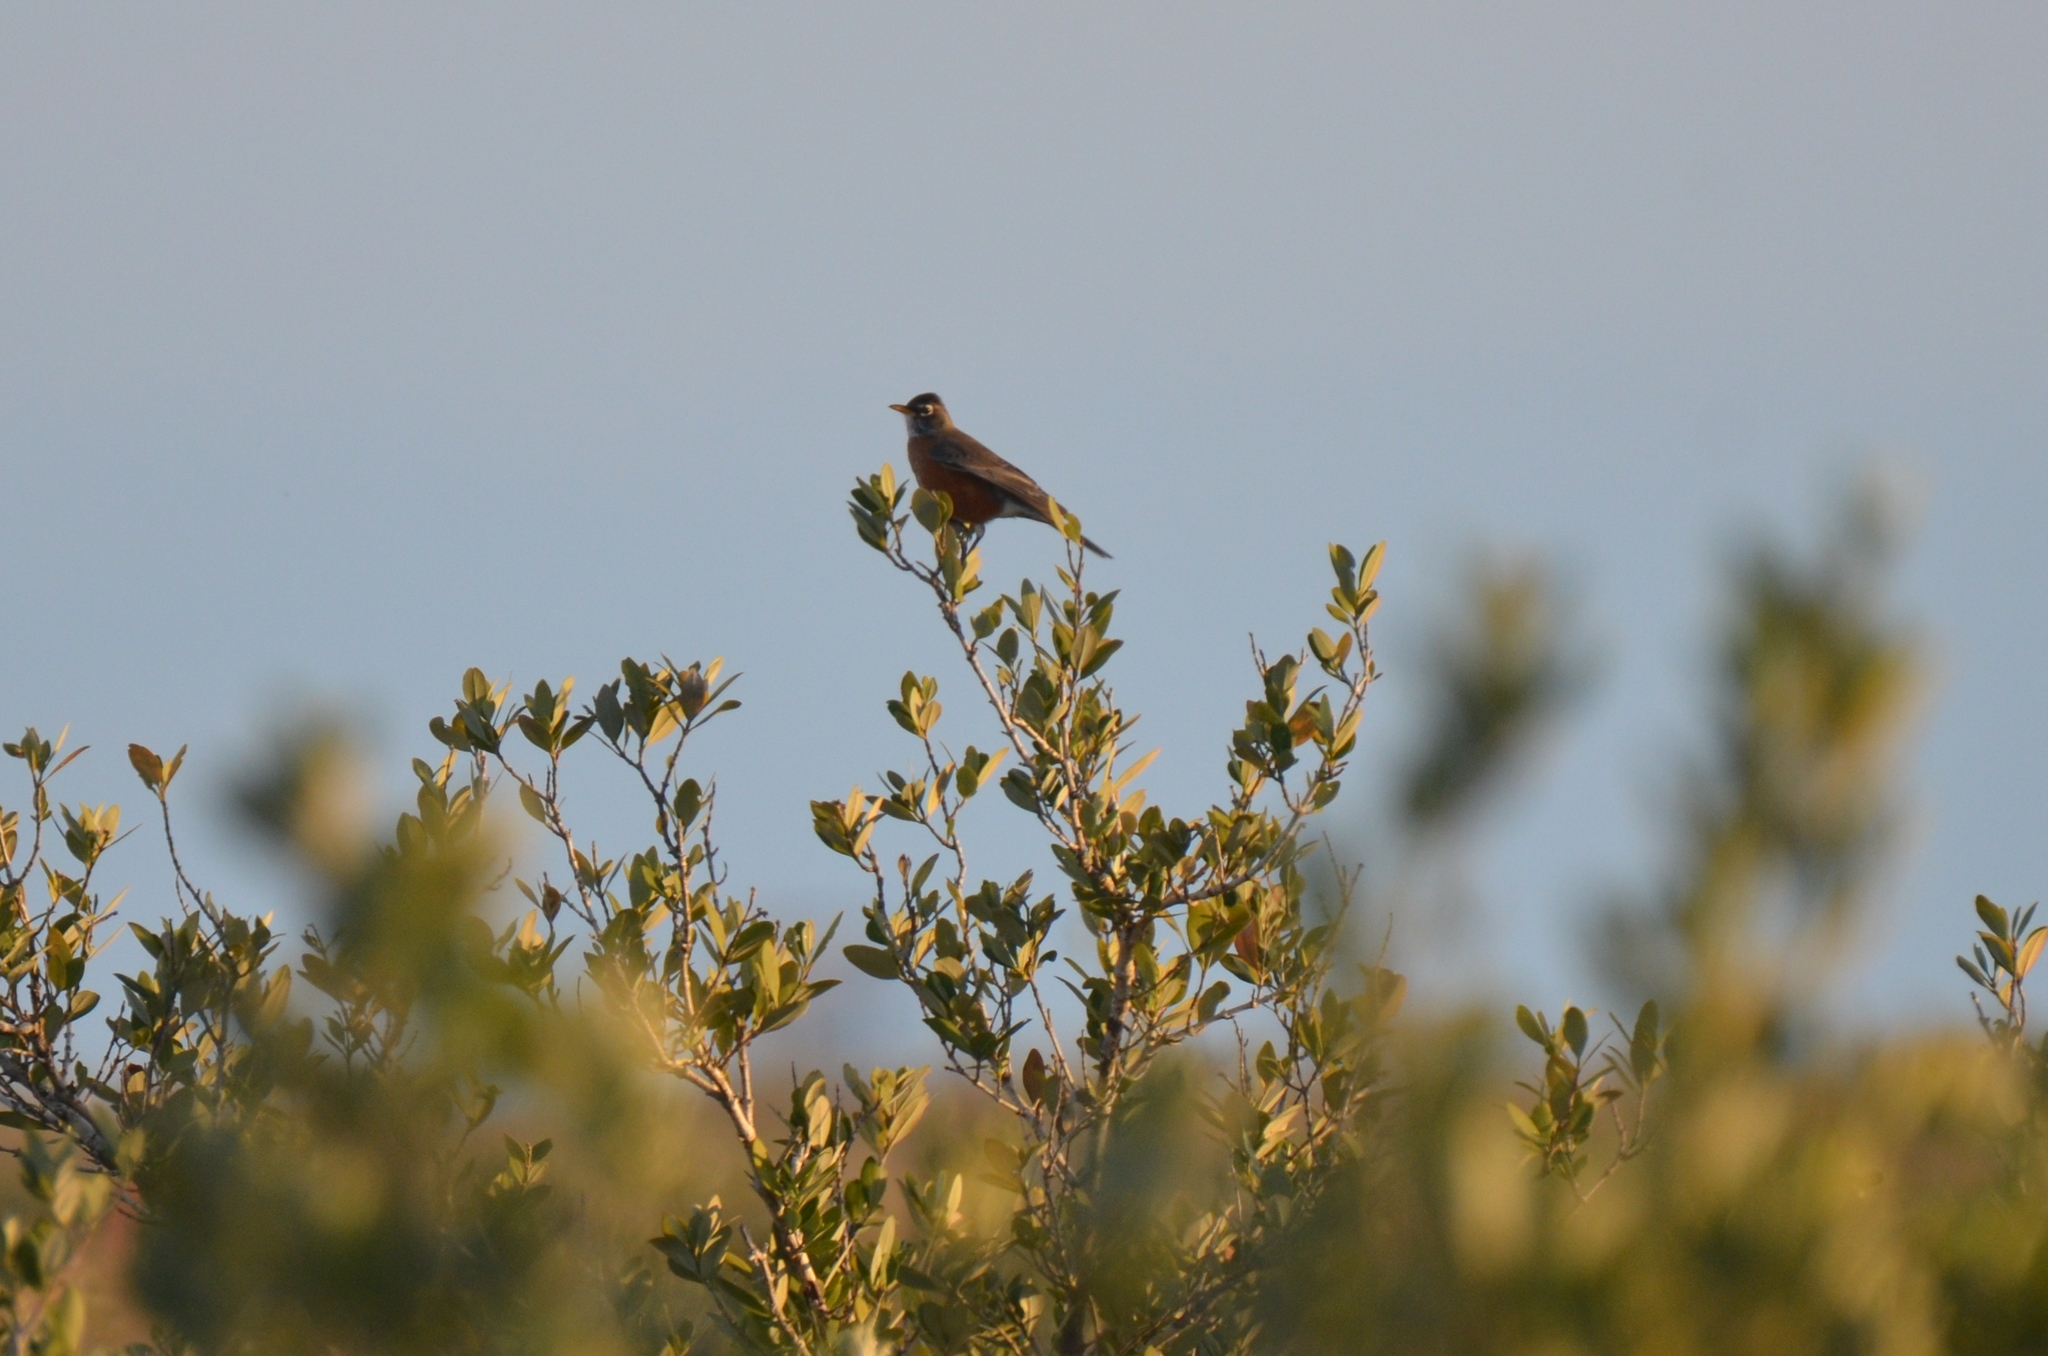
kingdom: Animalia
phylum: Chordata
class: Aves
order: Passeriformes
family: Turdidae
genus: Turdus
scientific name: Turdus migratorius
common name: American robin
